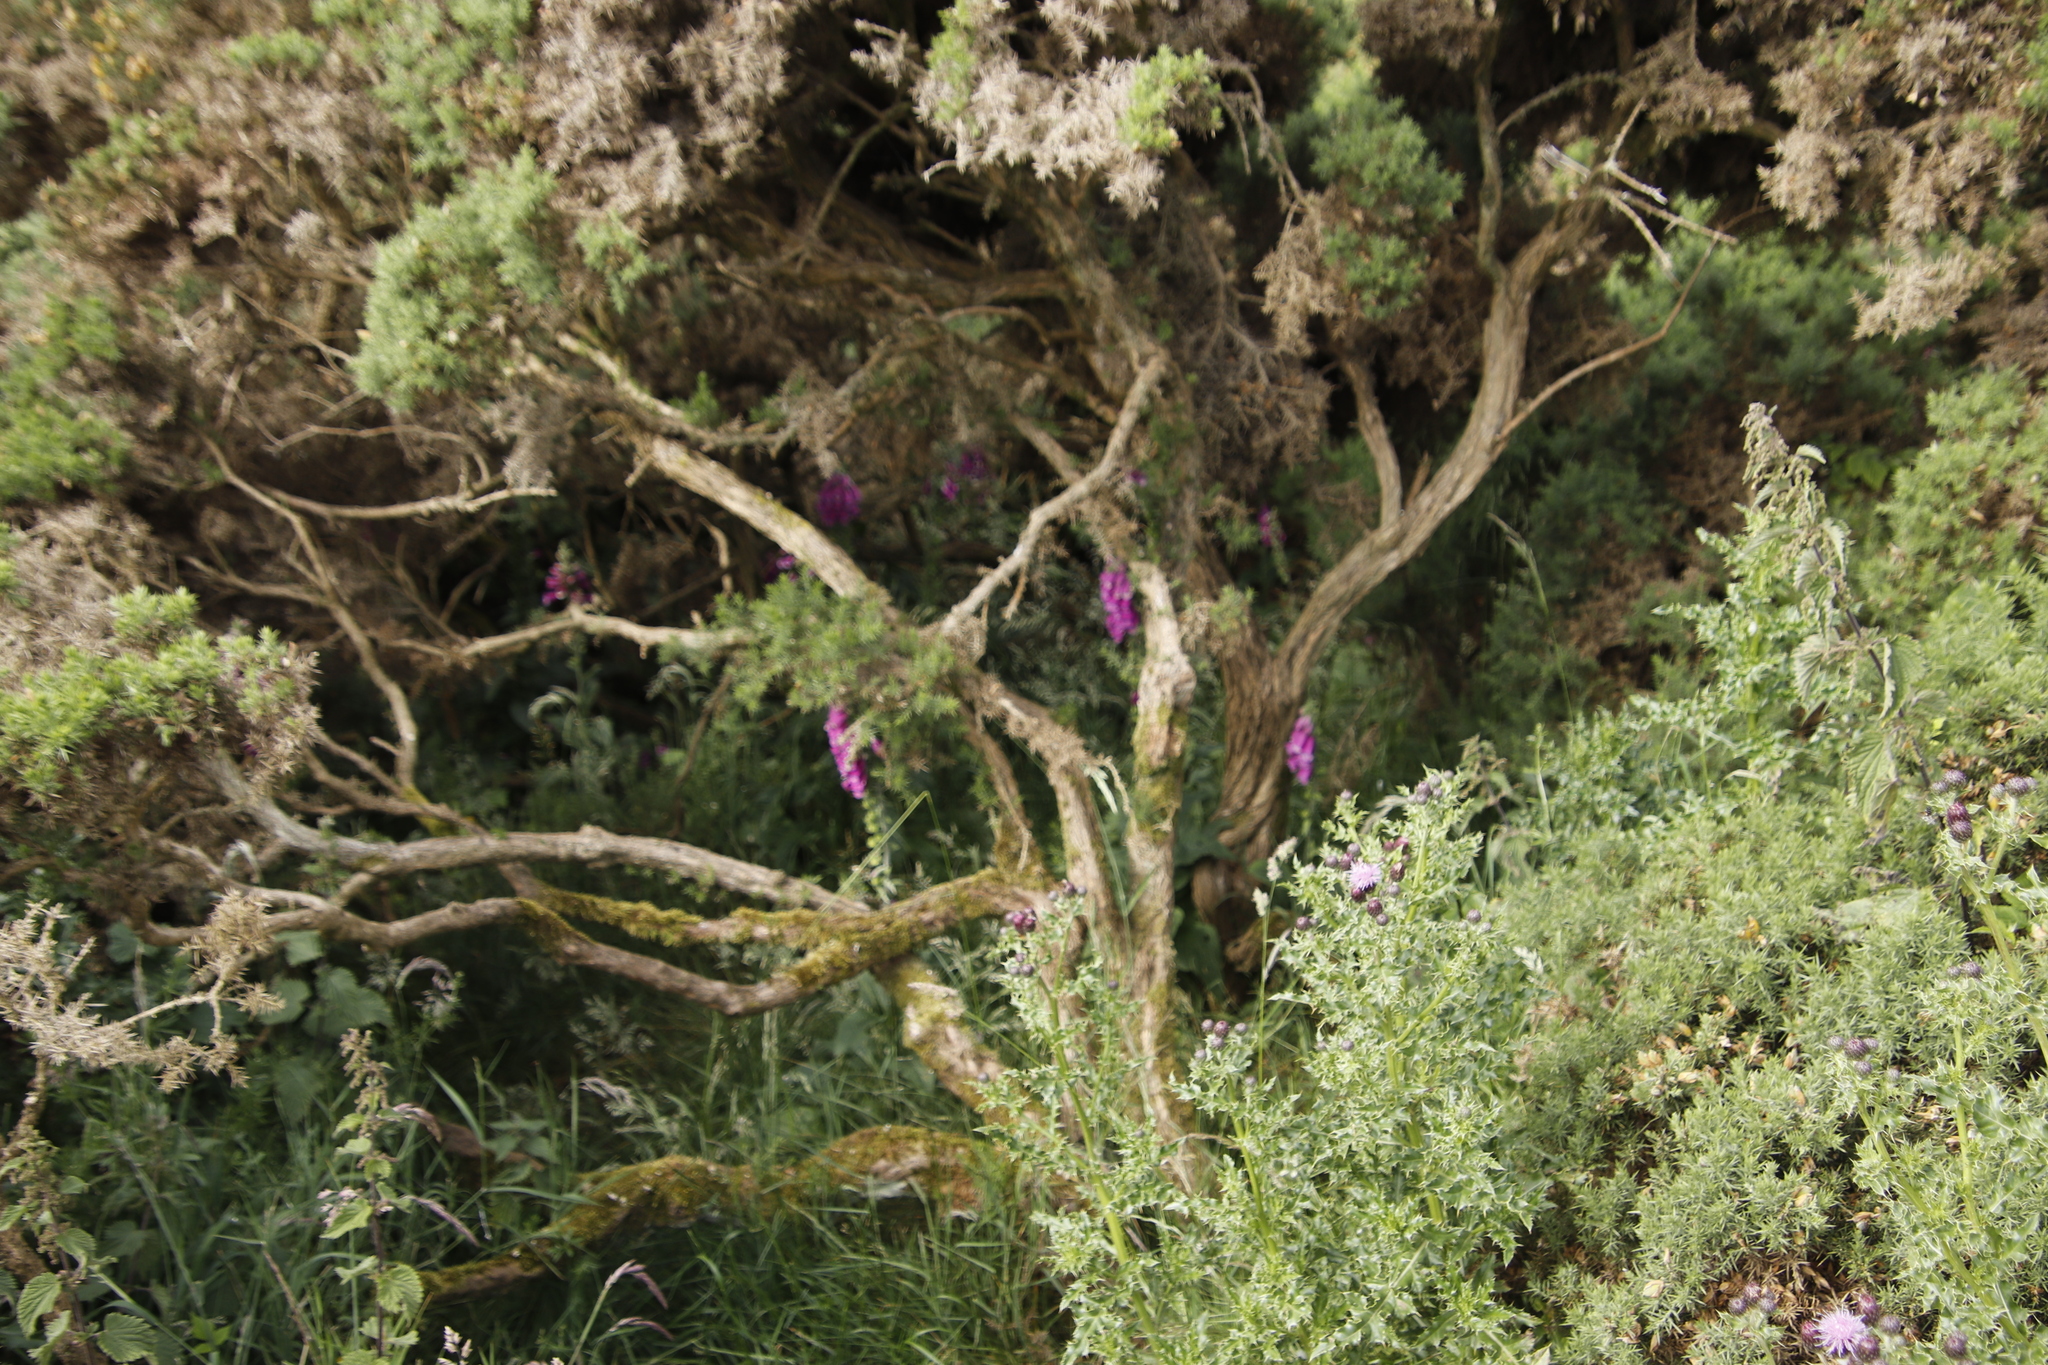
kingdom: Plantae
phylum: Tracheophyta
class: Magnoliopsida
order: Lamiales
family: Plantaginaceae
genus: Digitalis
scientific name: Digitalis purpurea
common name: Foxglove
